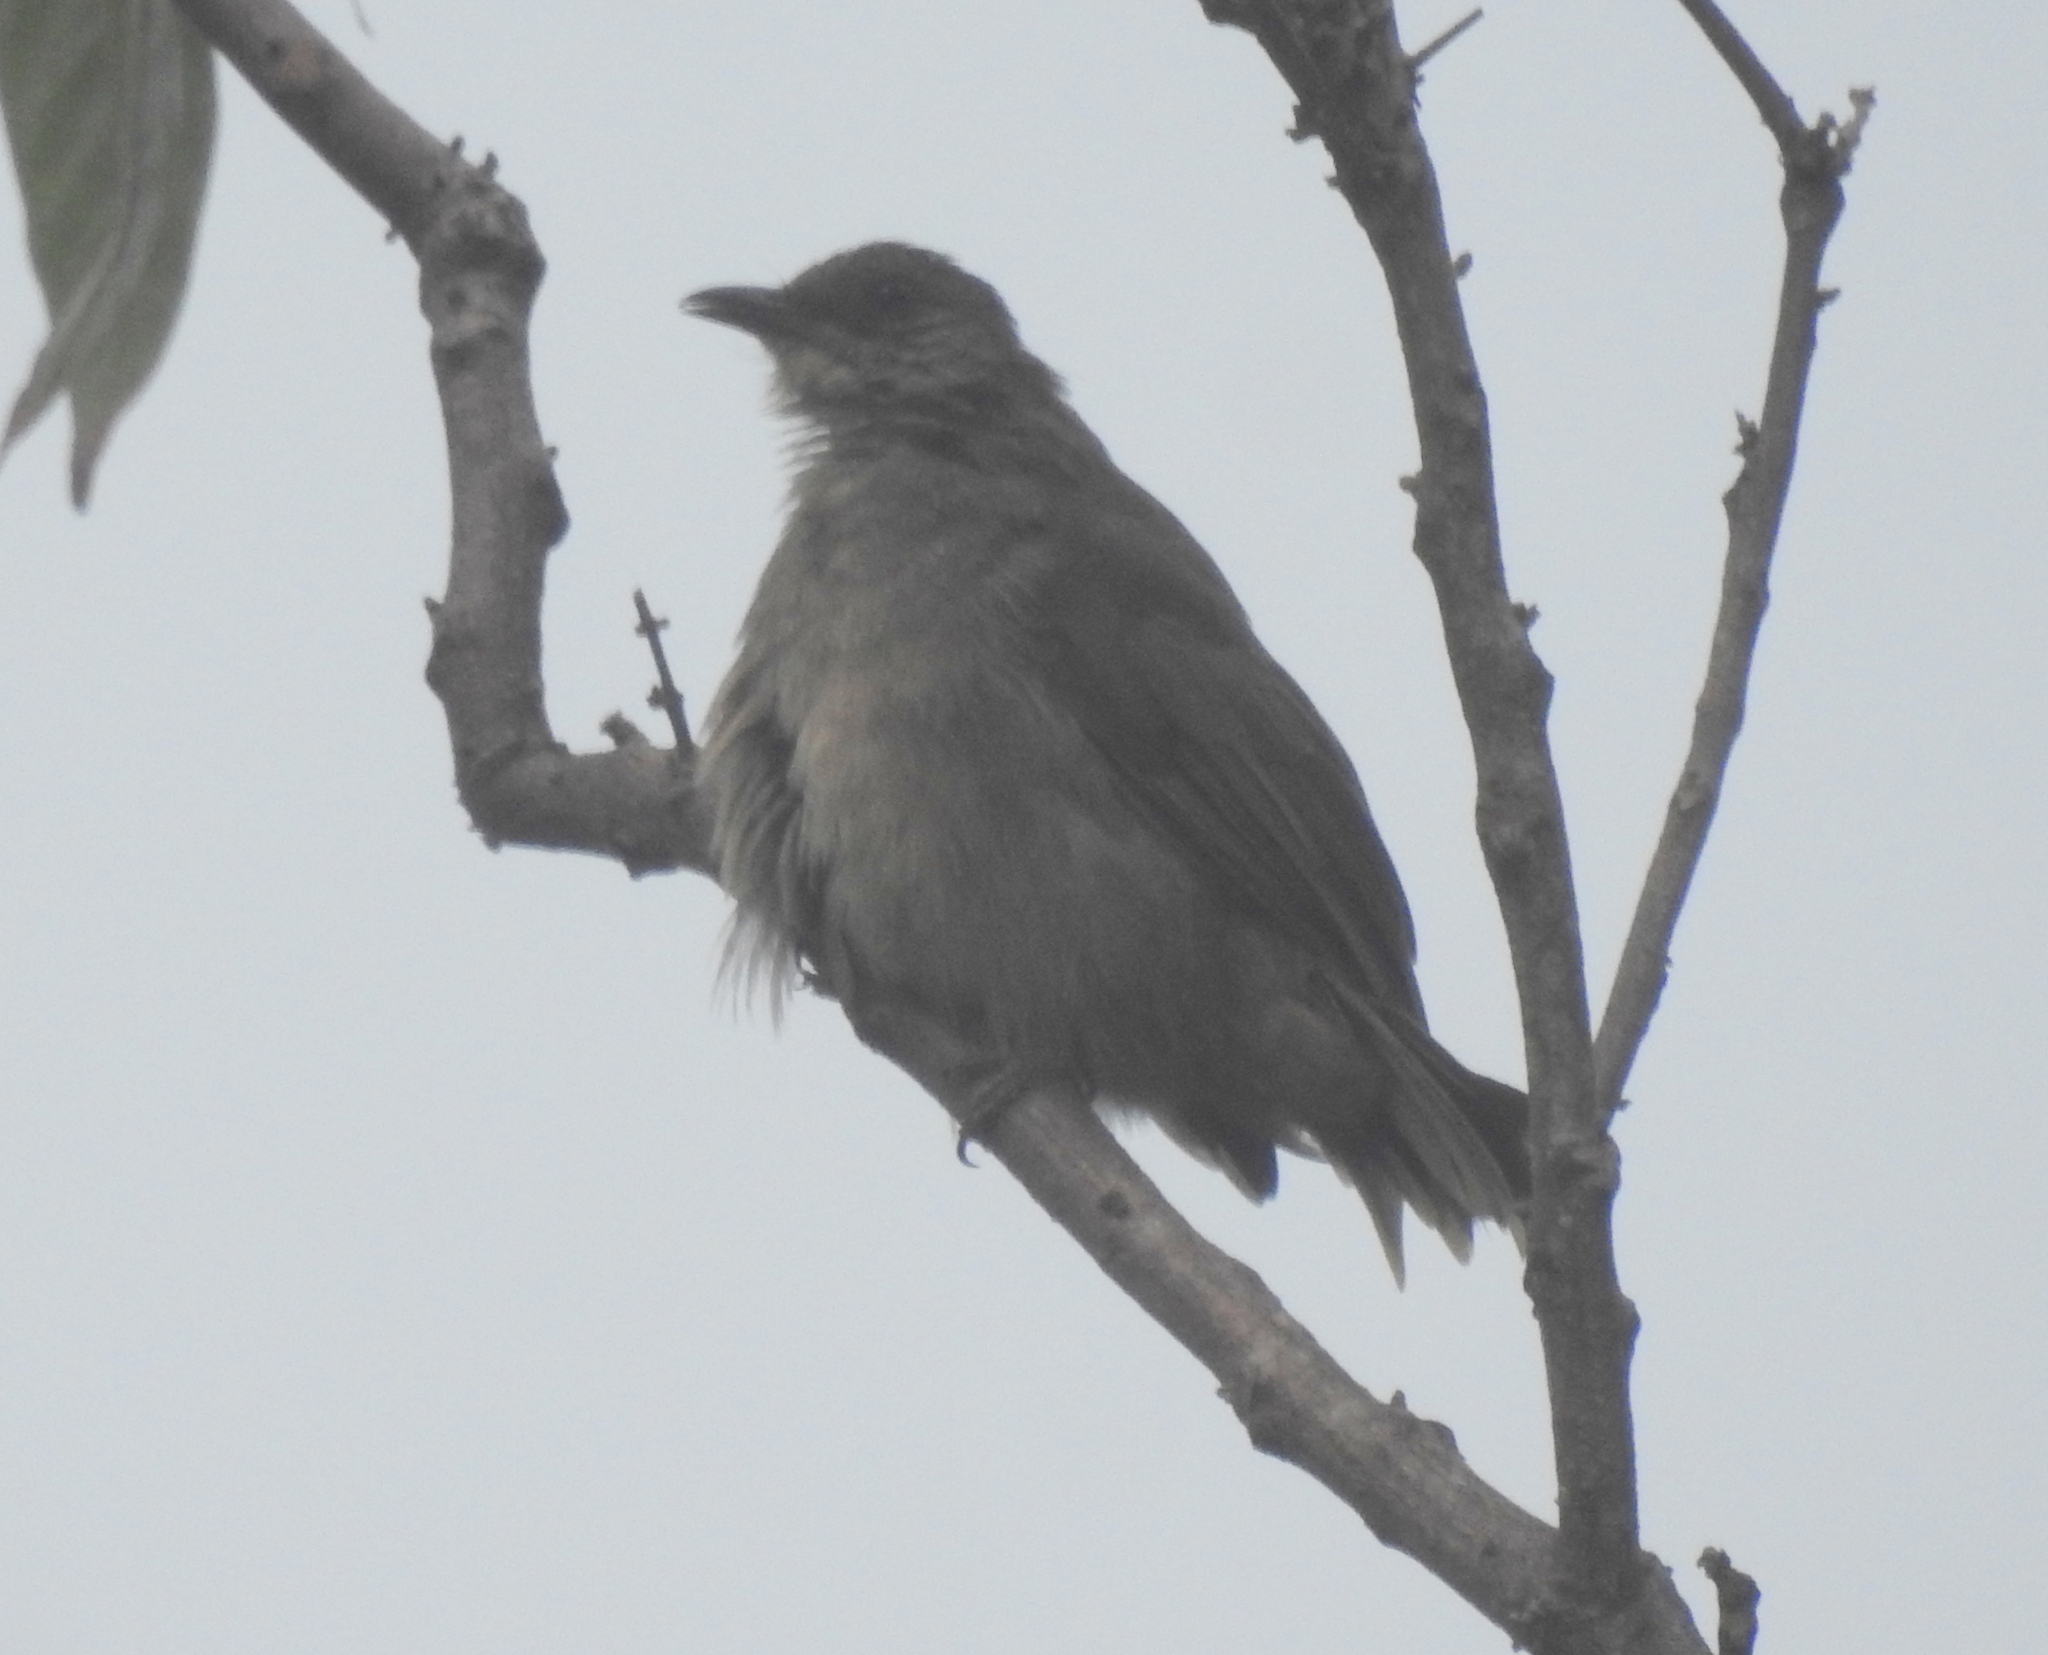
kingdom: Animalia
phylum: Chordata
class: Aves
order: Passeriformes
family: Pycnonotidae
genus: Pycnonotus
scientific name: Pycnonotus plumosus
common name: Olive-winged bulbul
